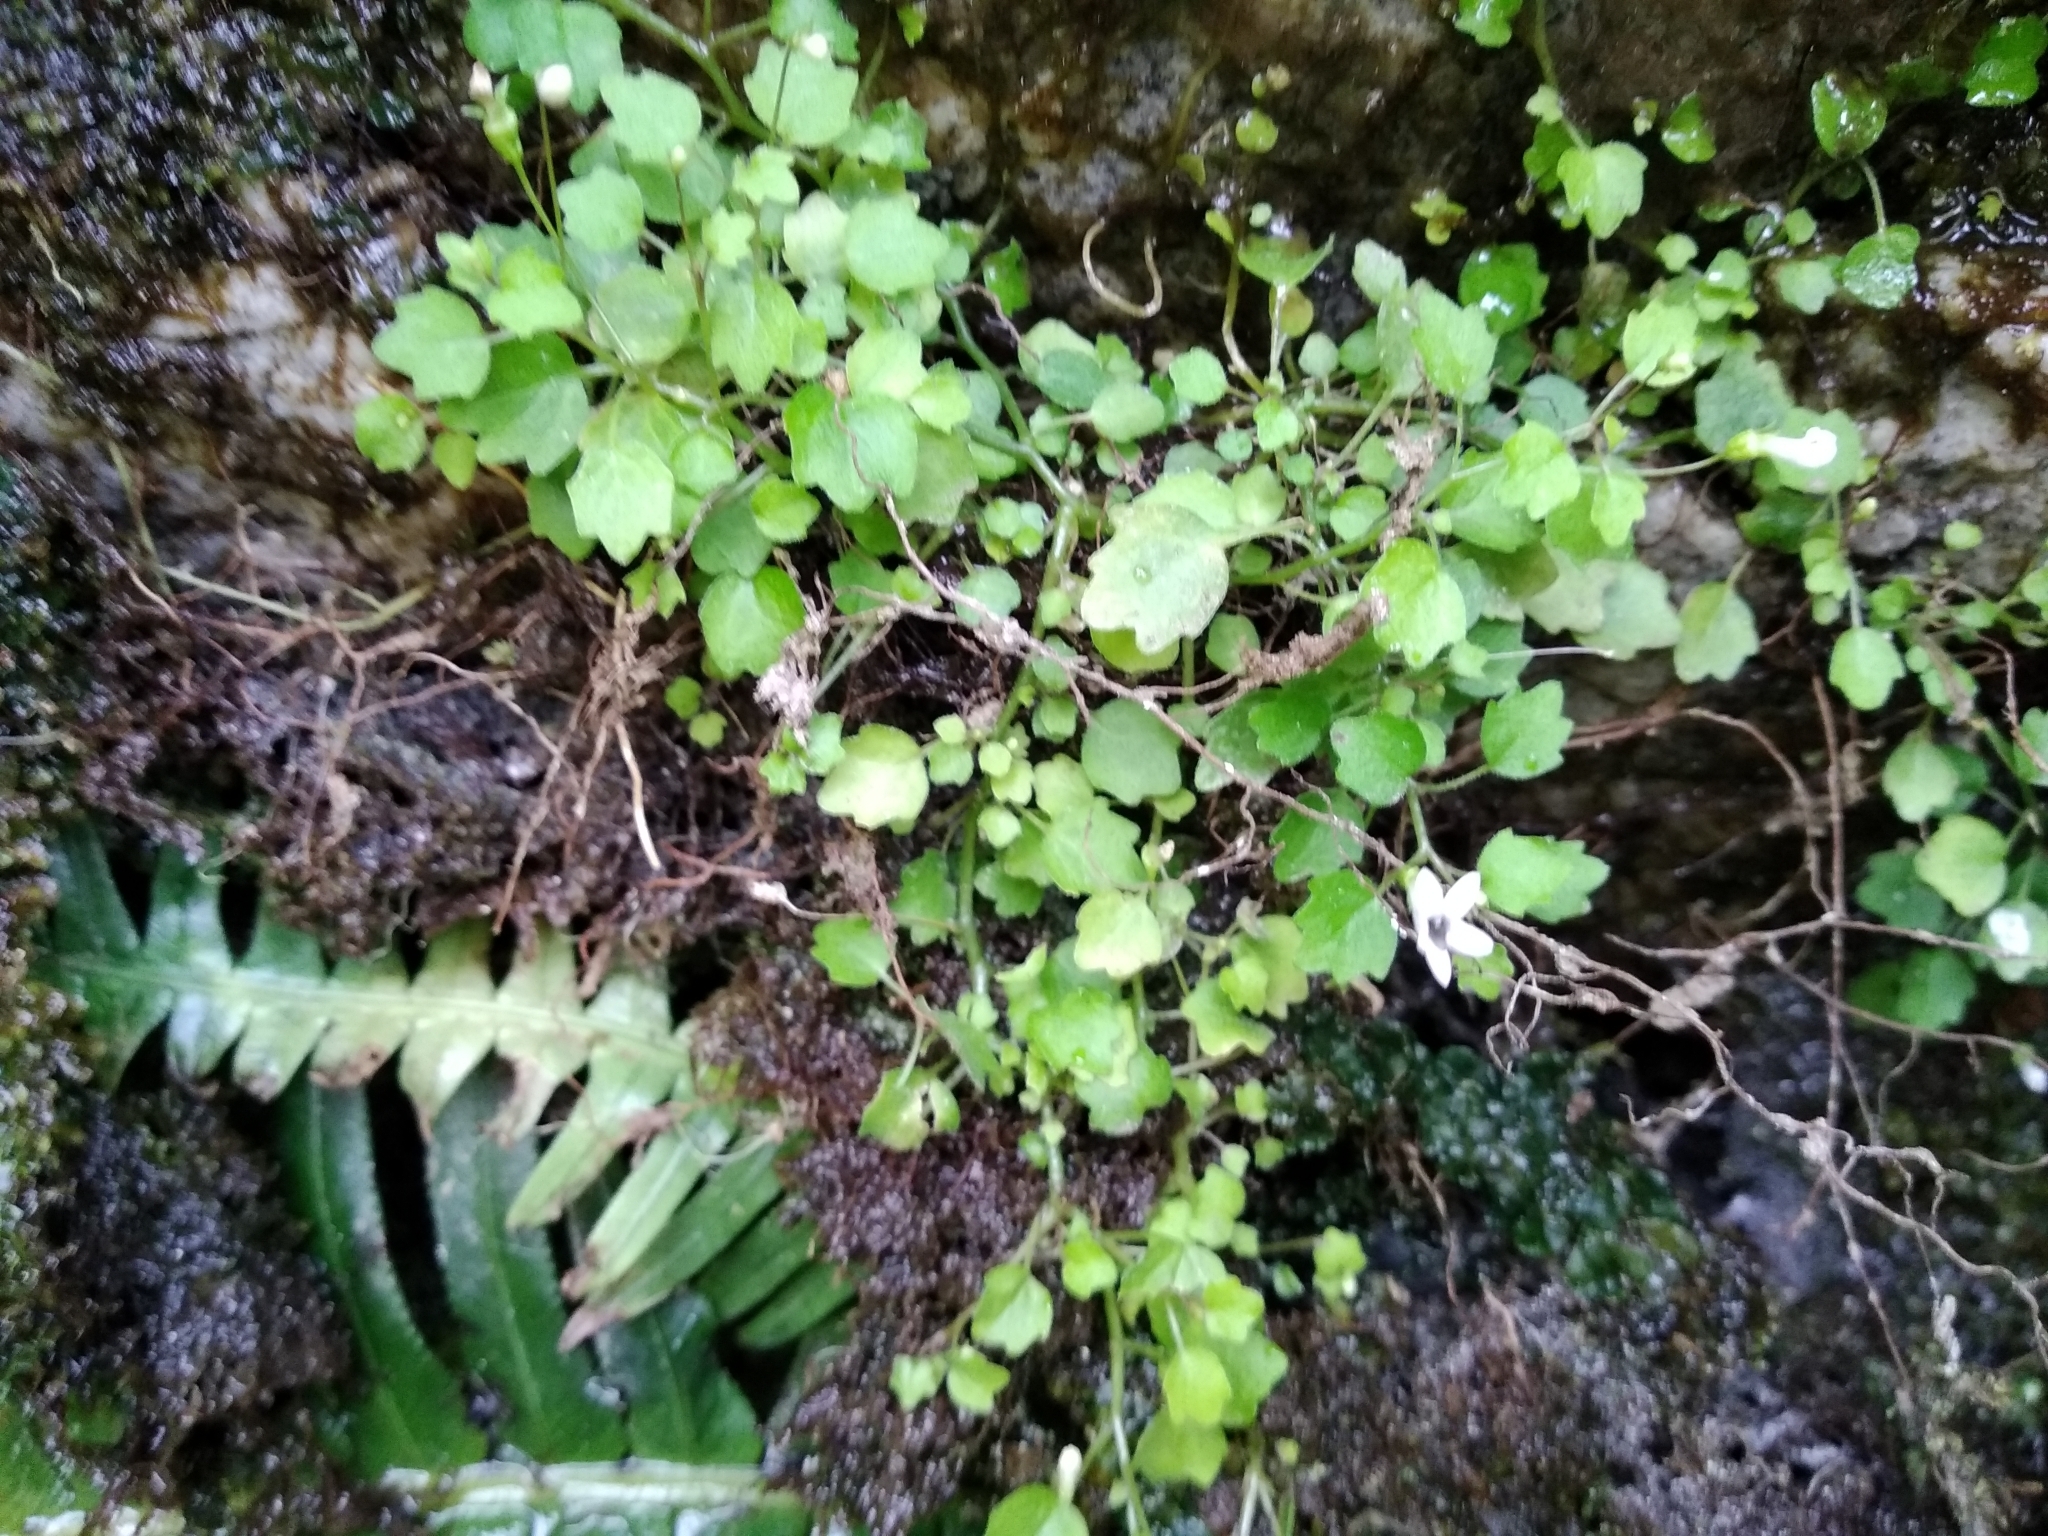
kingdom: Plantae
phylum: Tracheophyta
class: Magnoliopsida
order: Asterales
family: Campanulaceae
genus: Wimmerella
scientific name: Wimmerella pygmaea
